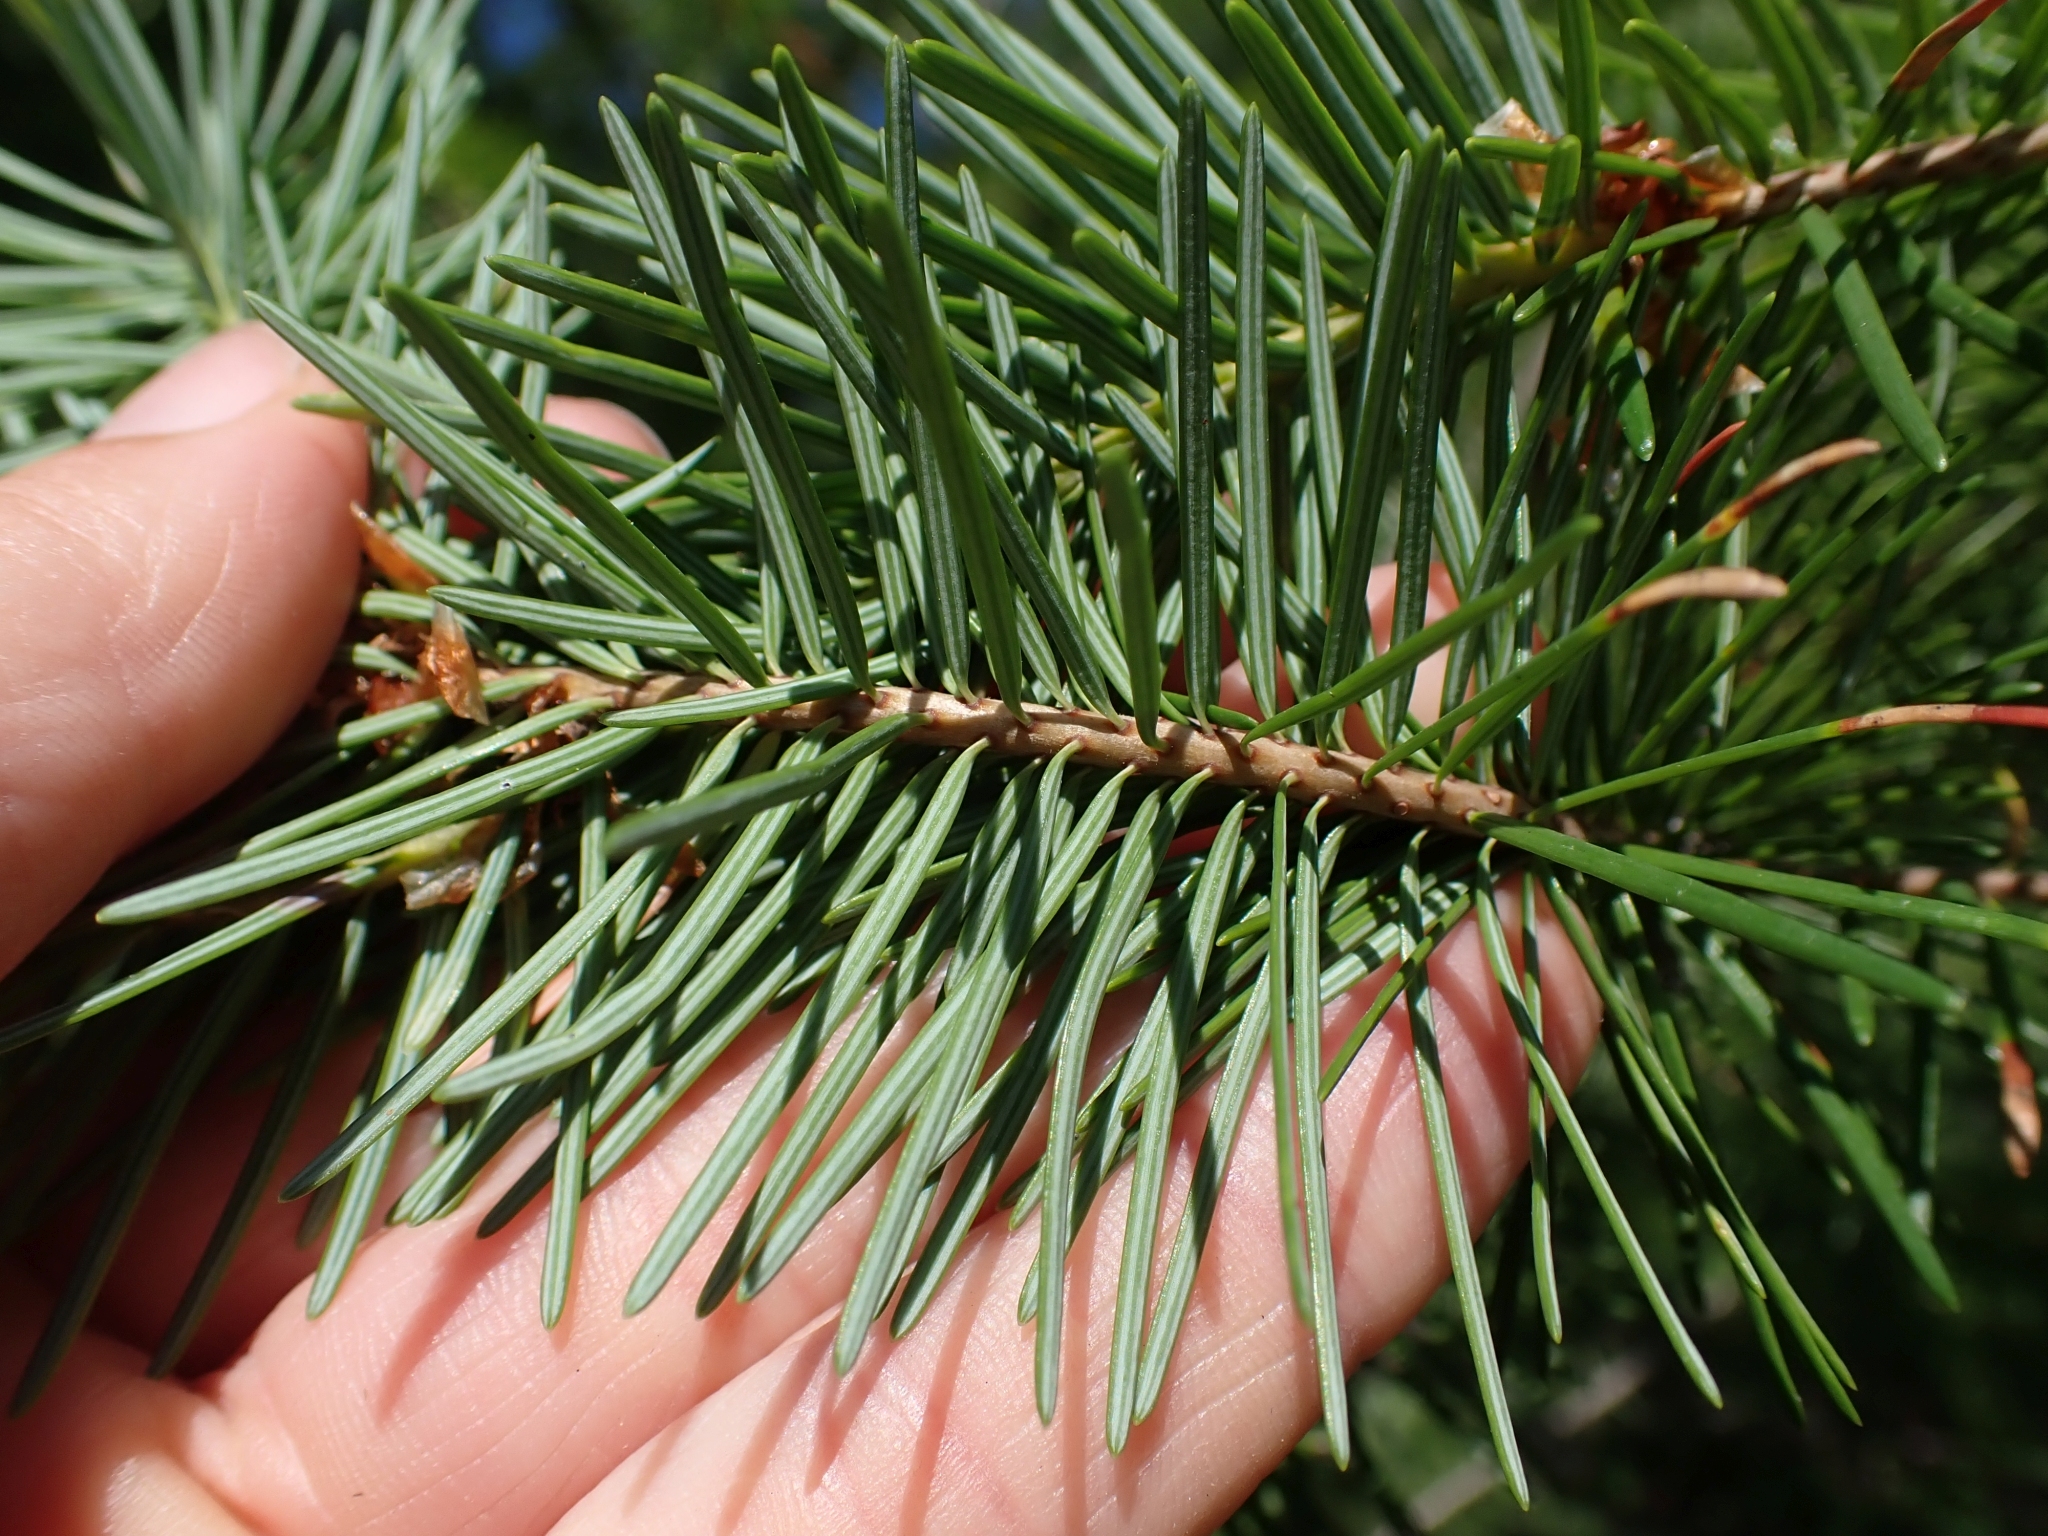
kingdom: Plantae
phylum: Tracheophyta
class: Pinopsida
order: Pinales
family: Pinaceae
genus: Pseudotsuga
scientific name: Pseudotsuga menziesii
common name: Douglas fir
